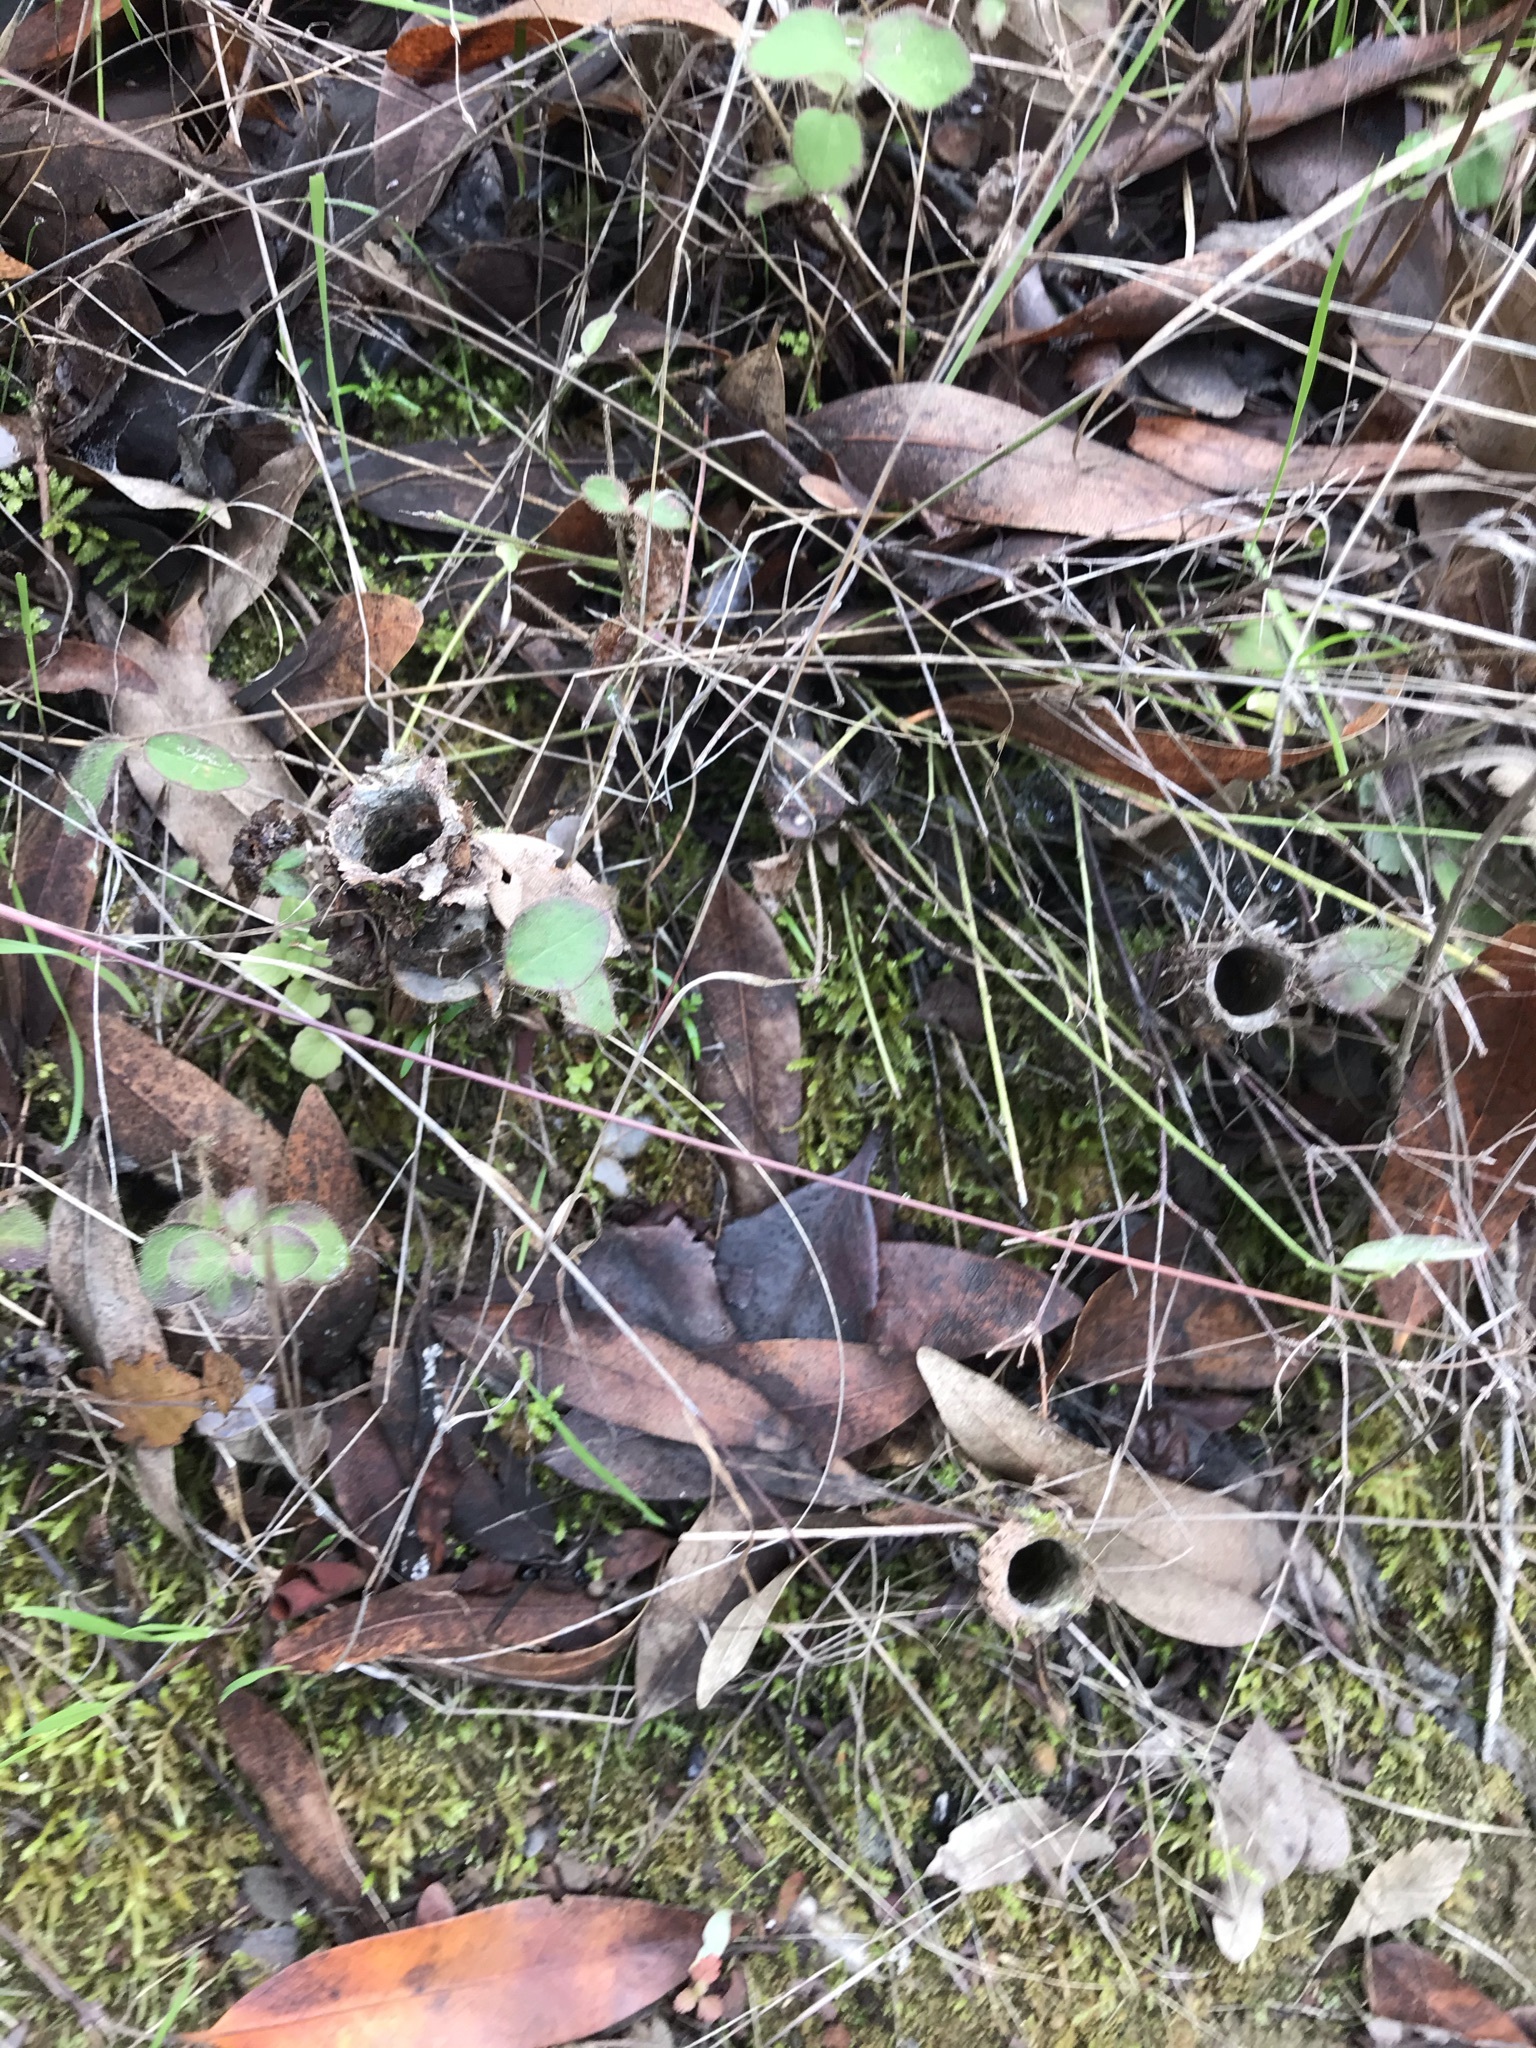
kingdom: Animalia
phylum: Arthropoda
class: Arachnida
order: Araneae
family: Antrodiaetidae
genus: Atypoides
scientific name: Atypoides riversi
